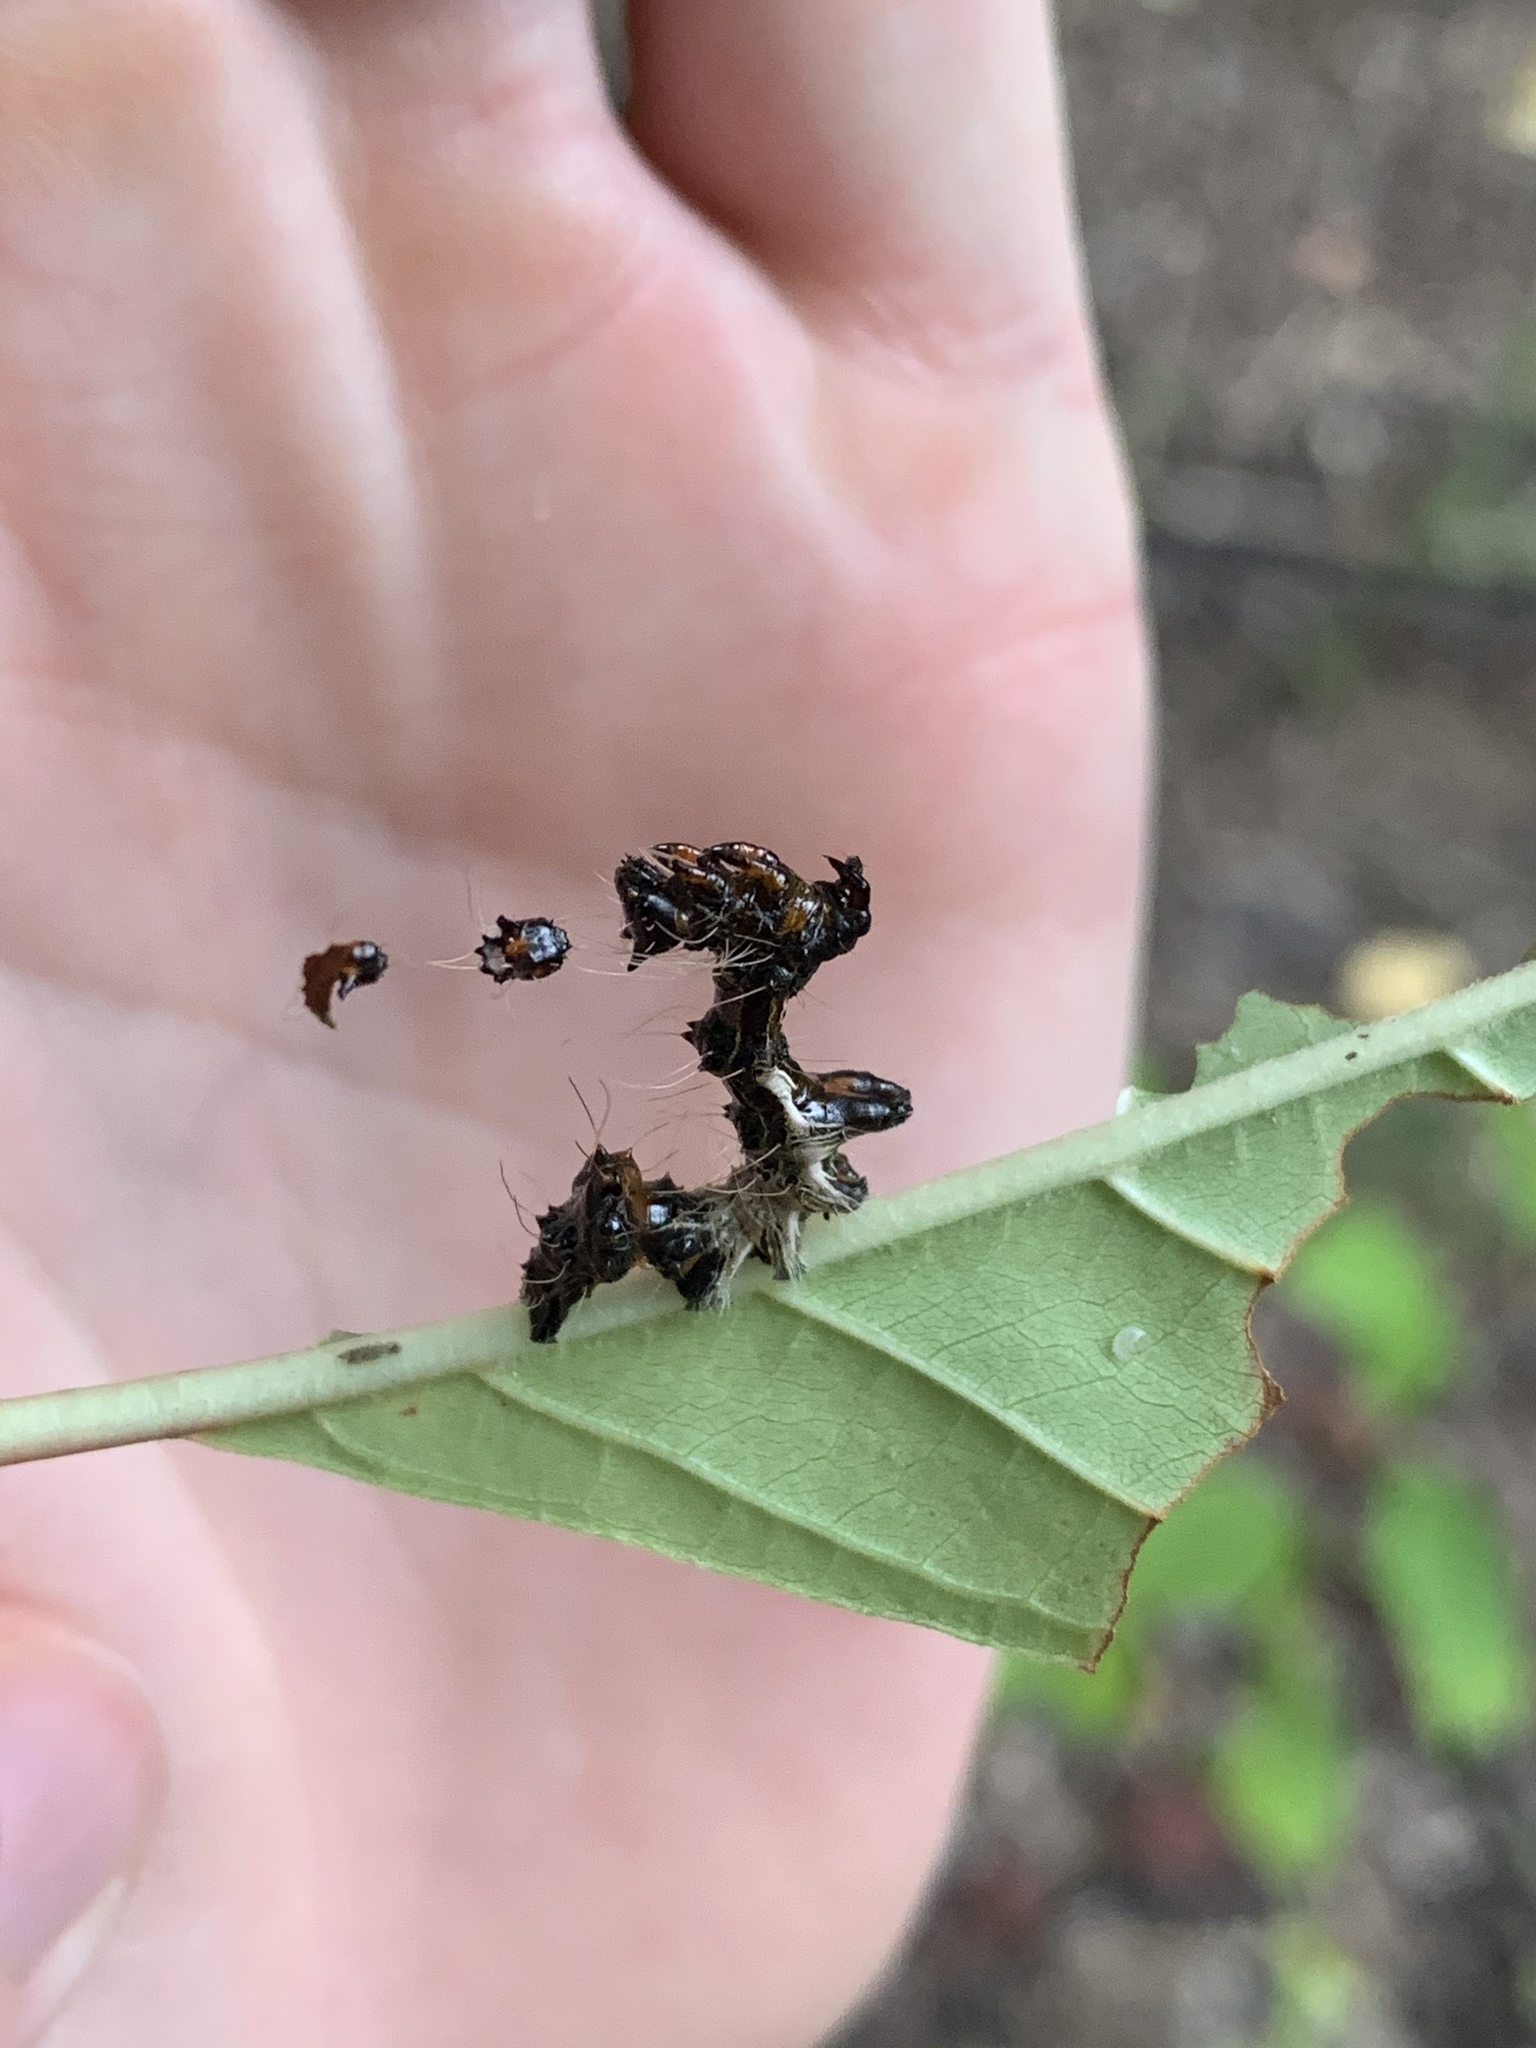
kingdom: Animalia
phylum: Arthropoda
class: Insecta
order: Lepidoptera
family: Noctuidae
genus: Harrisimemna
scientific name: Harrisimemna trisignata
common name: Harris threespot
